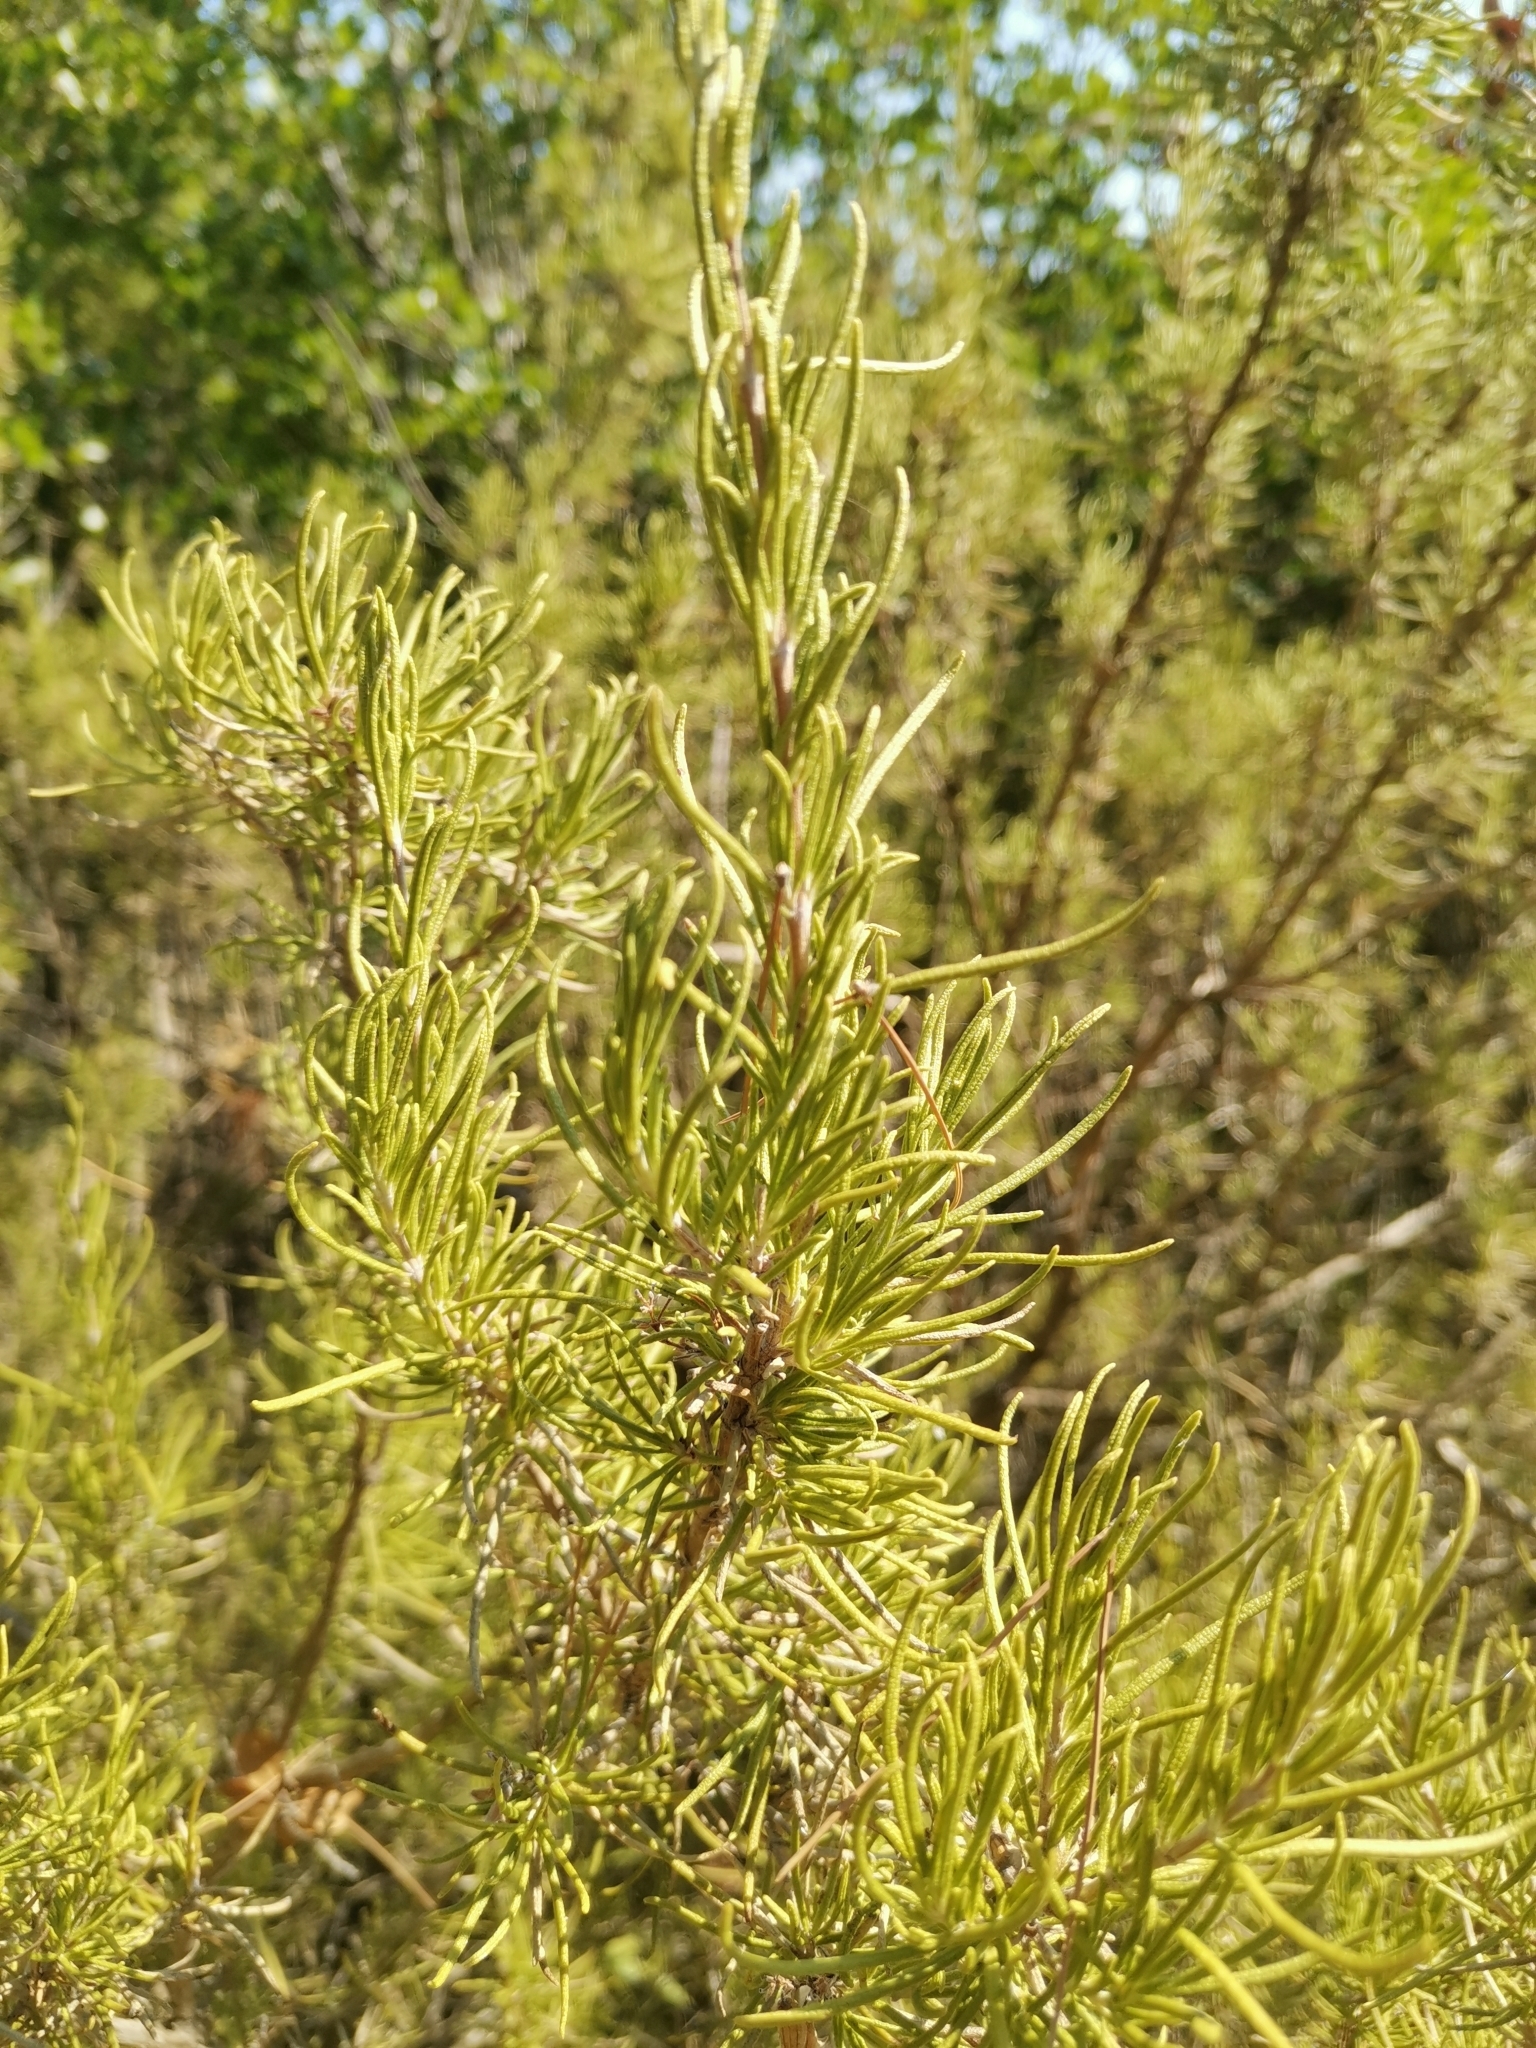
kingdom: Plantae
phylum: Tracheophyta
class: Magnoliopsida
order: Lamiales
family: Lamiaceae
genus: Salvia
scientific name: Salvia rosmarinus
